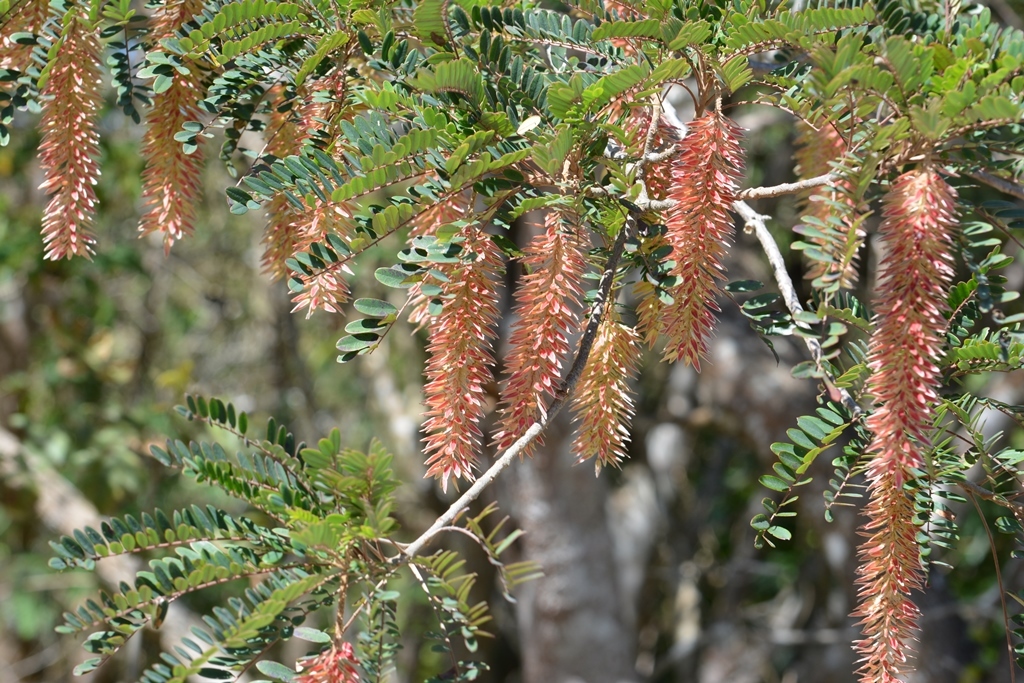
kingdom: Plantae
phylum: Tracheophyta
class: Magnoliopsida
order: Picramniales
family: Picramniaceae
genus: Alvaradoa
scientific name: Alvaradoa amorphoides
